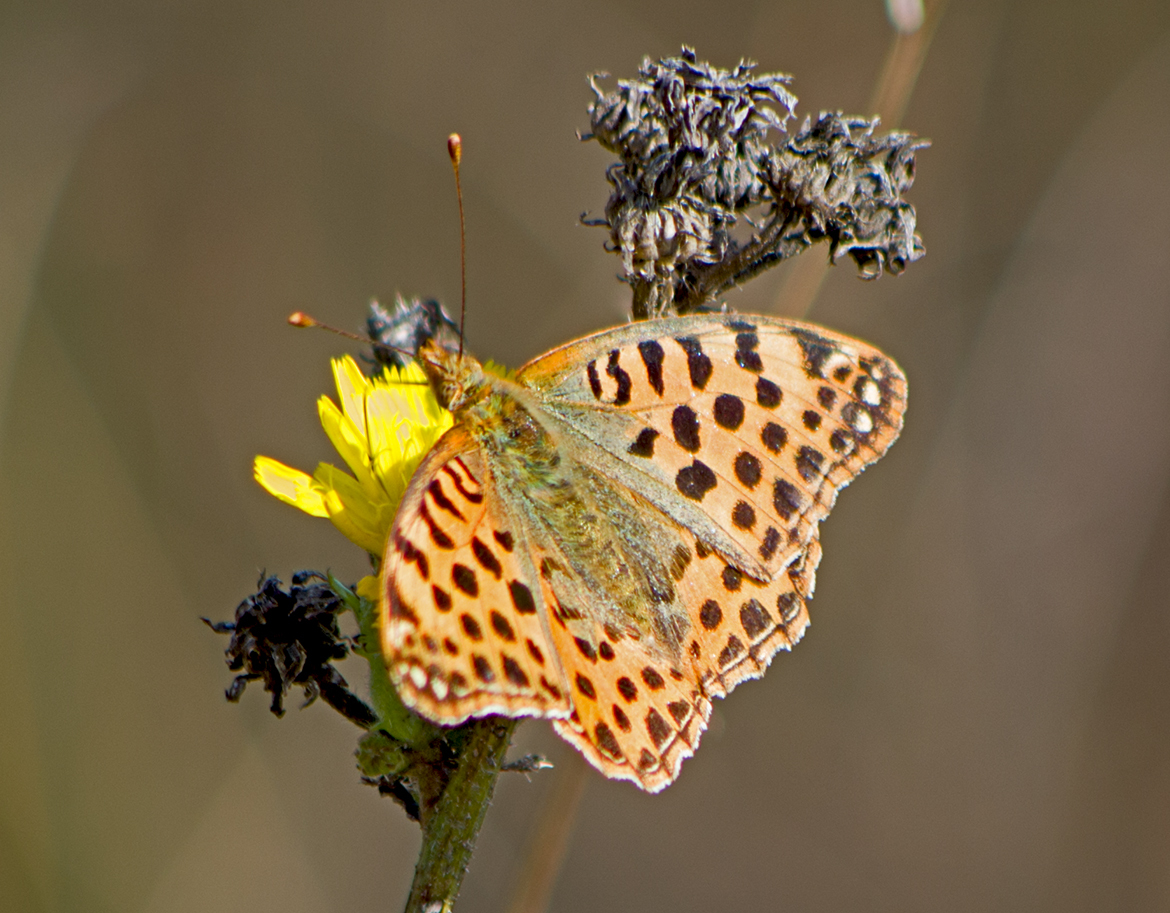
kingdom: Animalia
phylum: Arthropoda
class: Insecta
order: Lepidoptera
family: Nymphalidae
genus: Issoria
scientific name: Issoria lathonia
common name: Queen of spain fritillary
